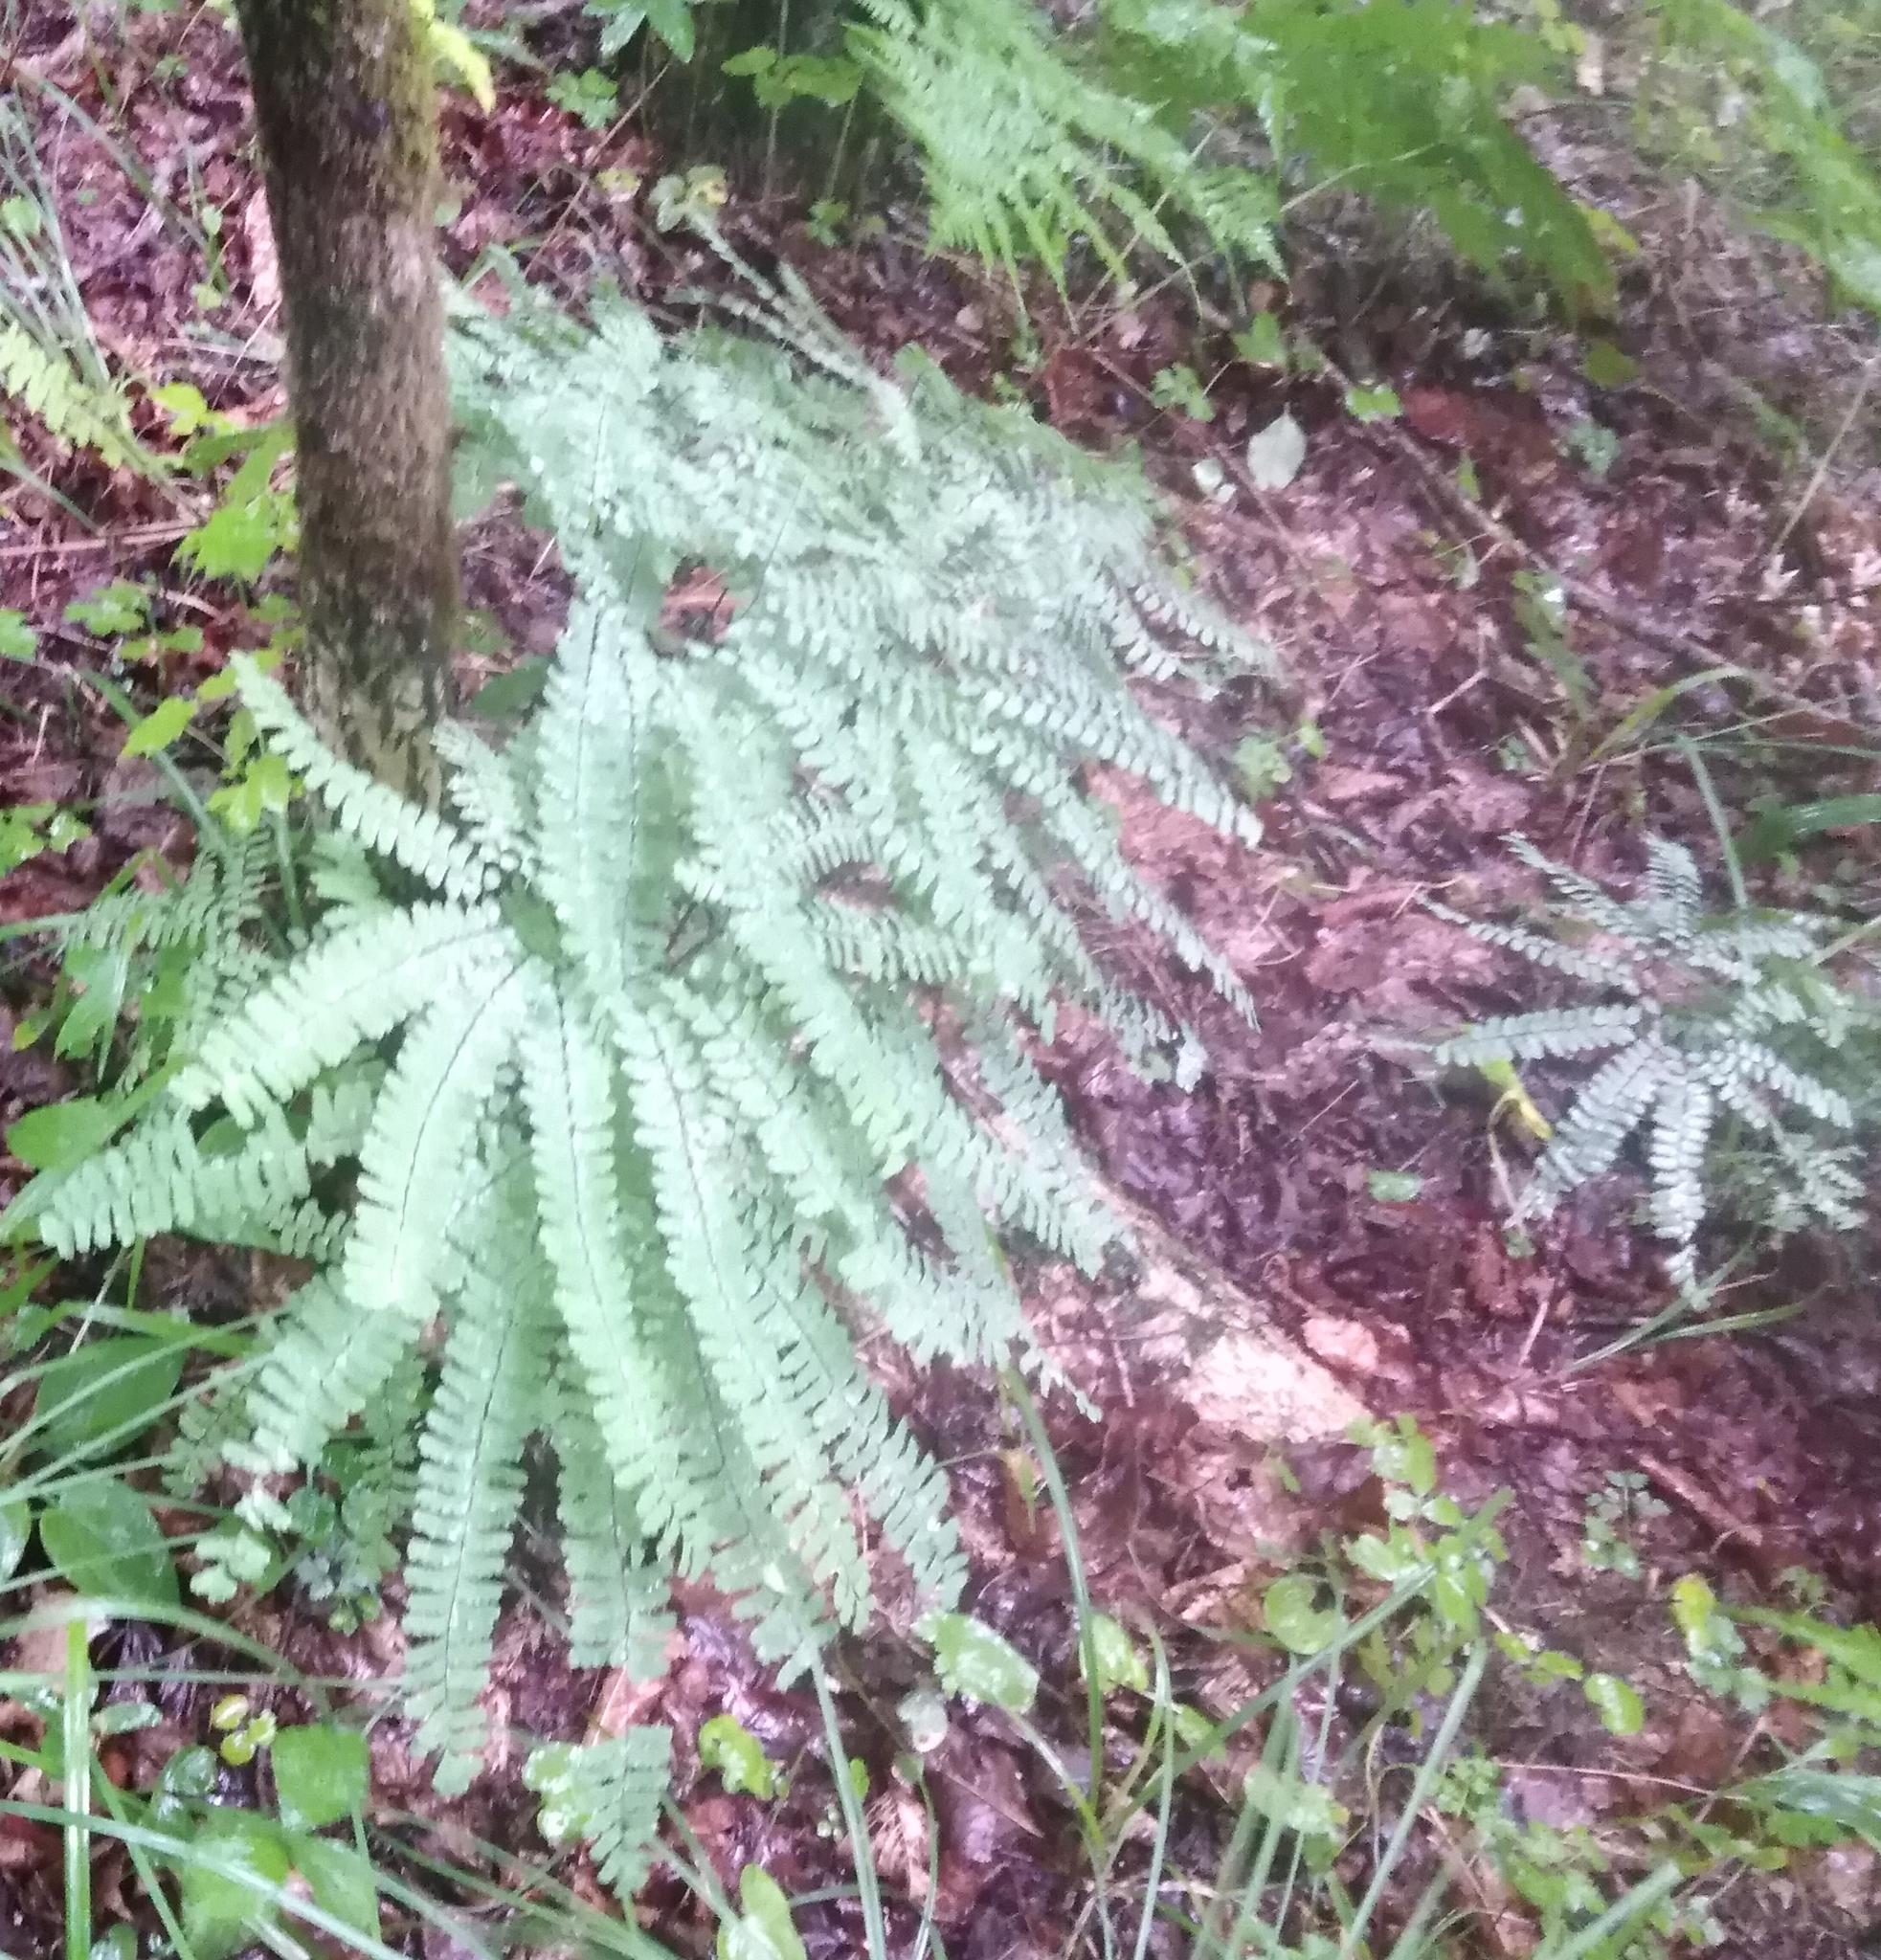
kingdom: Plantae
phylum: Tracheophyta
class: Polypodiopsida
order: Polypodiales
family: Pteridaceae
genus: Adiantum
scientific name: Adiantum pedatum
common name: Five-finger fern
